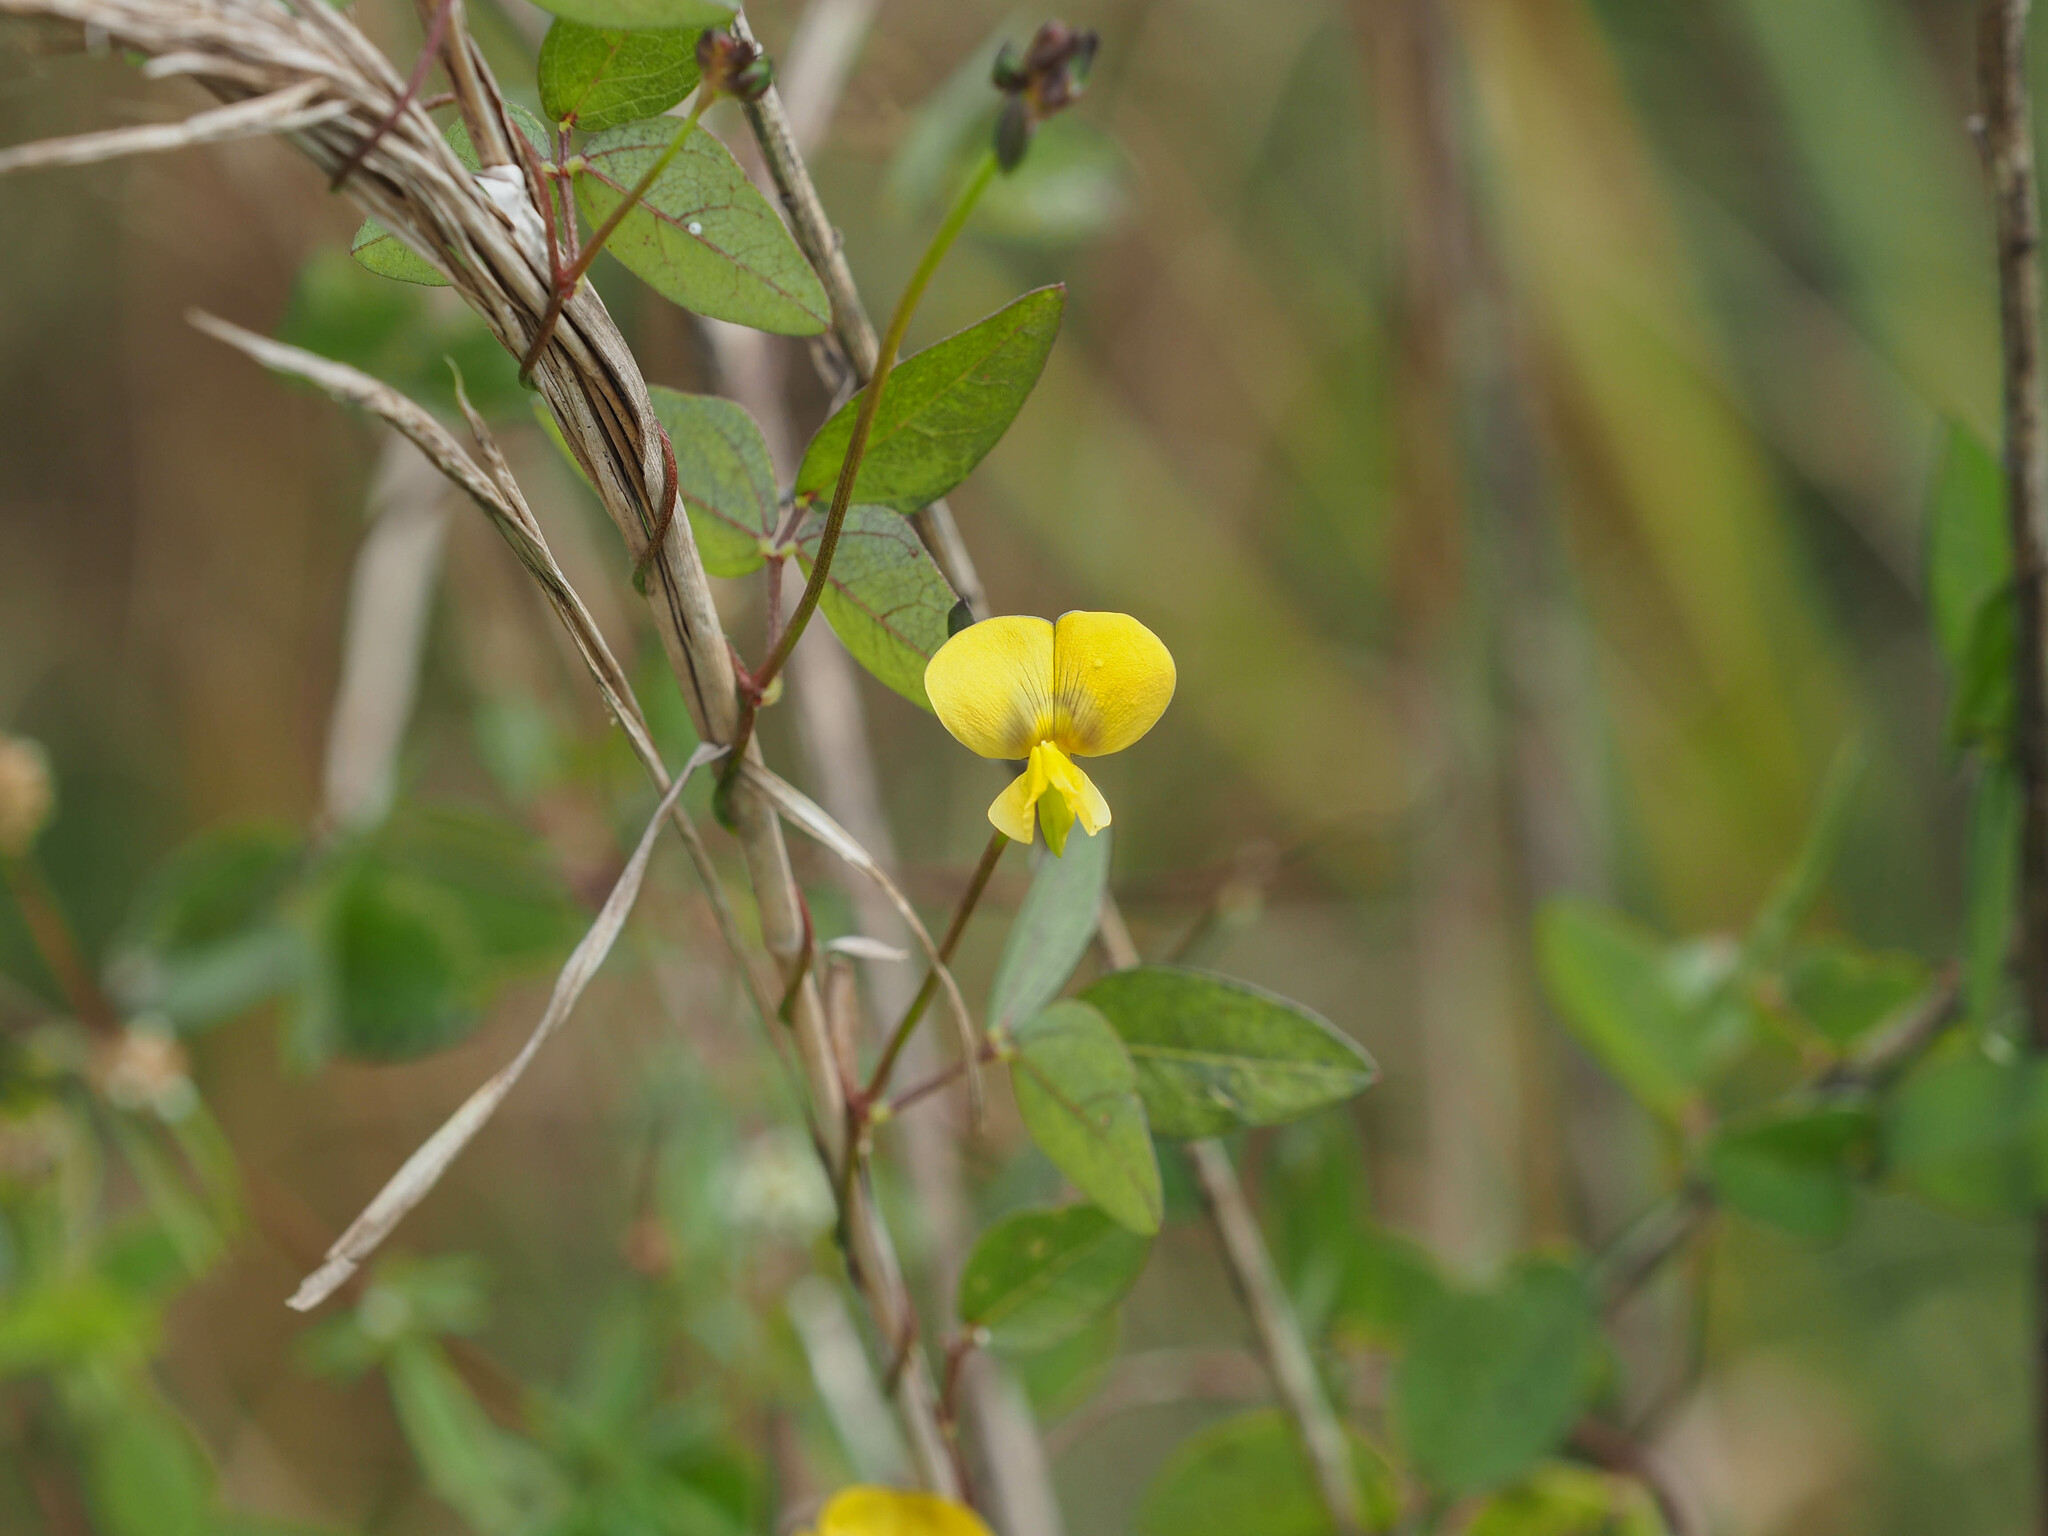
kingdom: Plantae
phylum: Tracheophyta
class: Magnoliopsida
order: Fabales
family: Fabaceae
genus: Vigna
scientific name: Vigna luteola
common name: Hairypod cowpea
